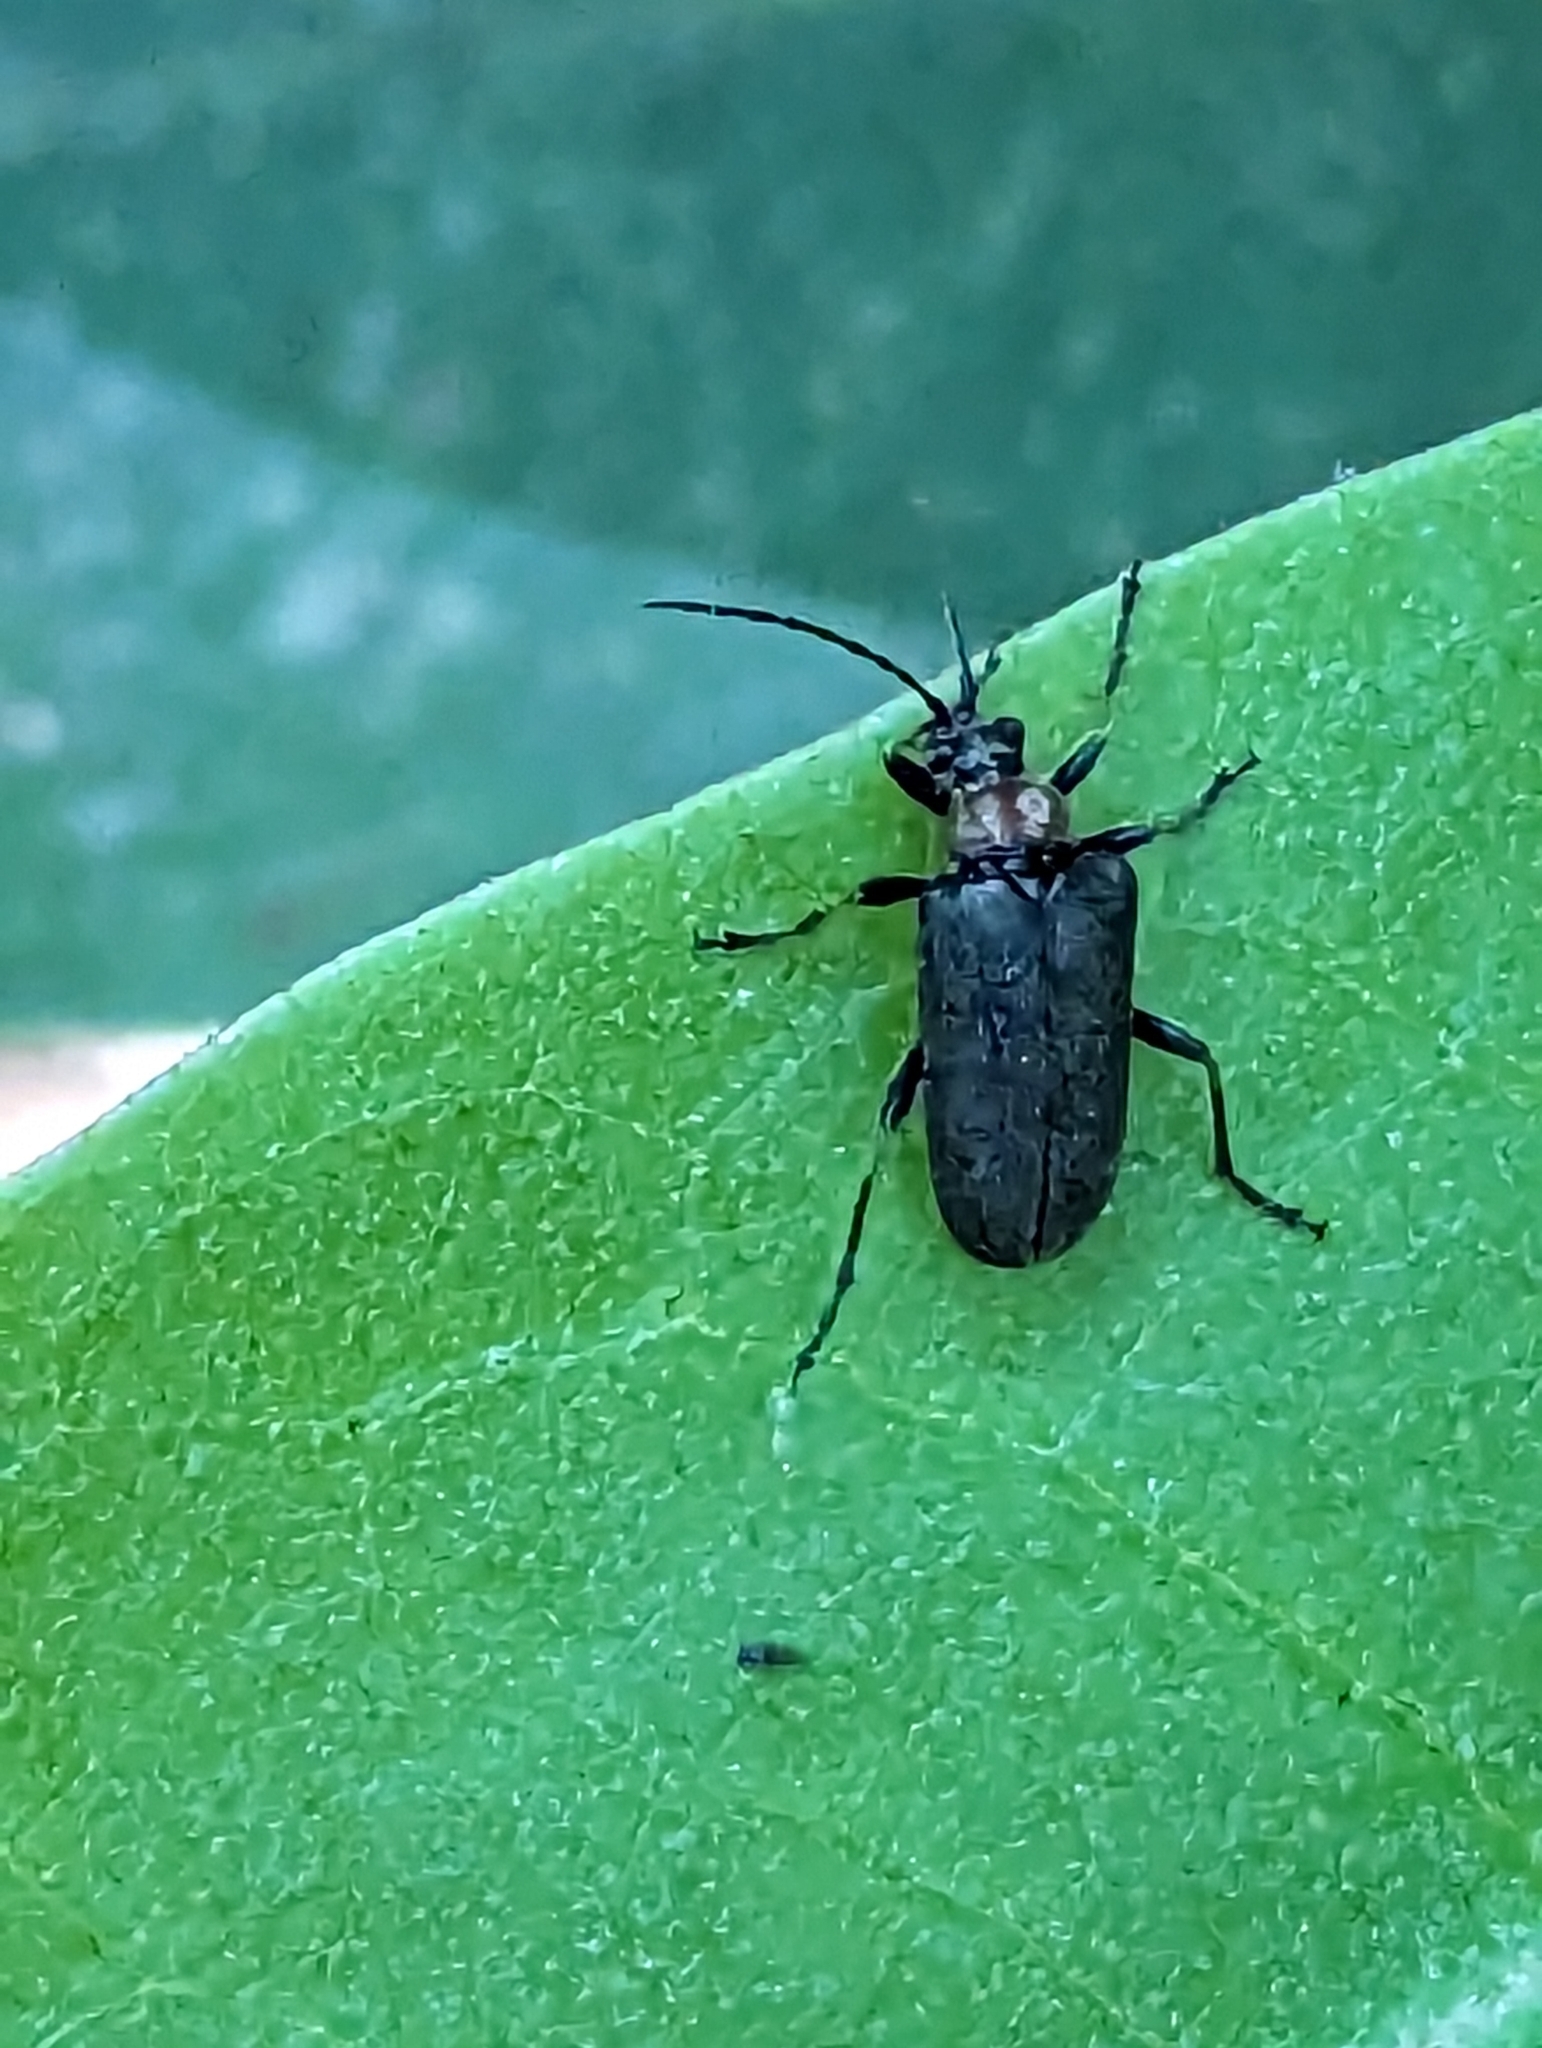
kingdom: Animalia
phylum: Arthropoda
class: Insecta
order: Coleoptera
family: Cerambycidae
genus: Gaurotes
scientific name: Gaurotes thoracica
